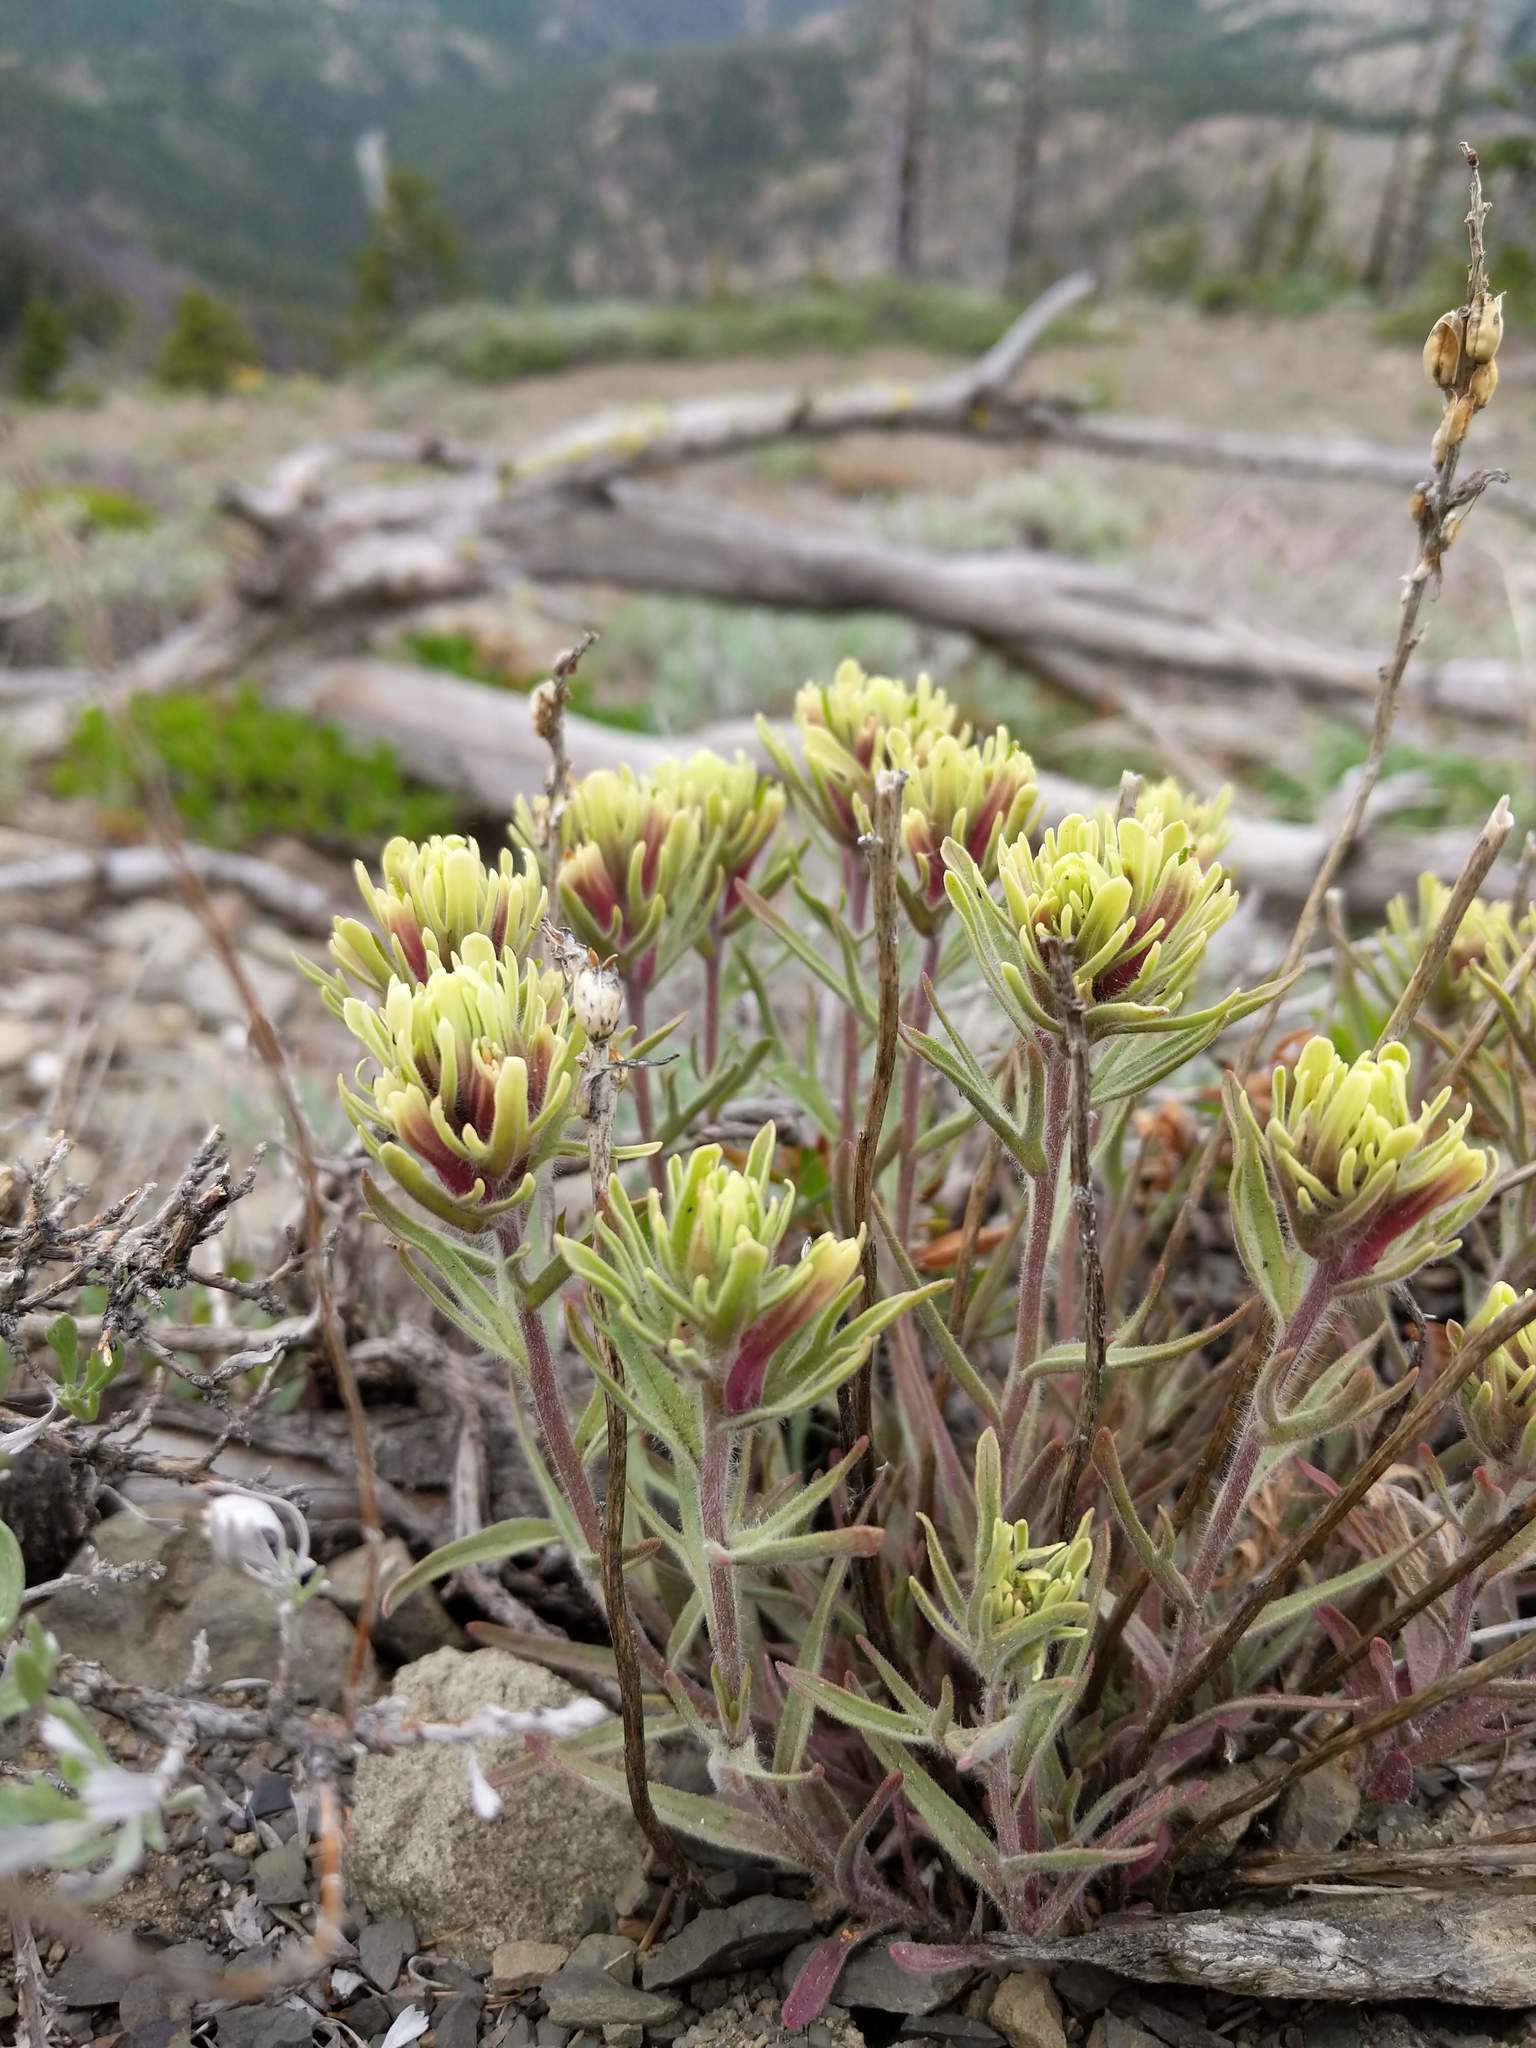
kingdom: Plantae
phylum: Tracheophyta
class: Magnoliopsida
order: Lamiales
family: Orobanchaceae
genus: Castilleja
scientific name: Castilleja thompsonii
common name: Thompson's paintbrush
